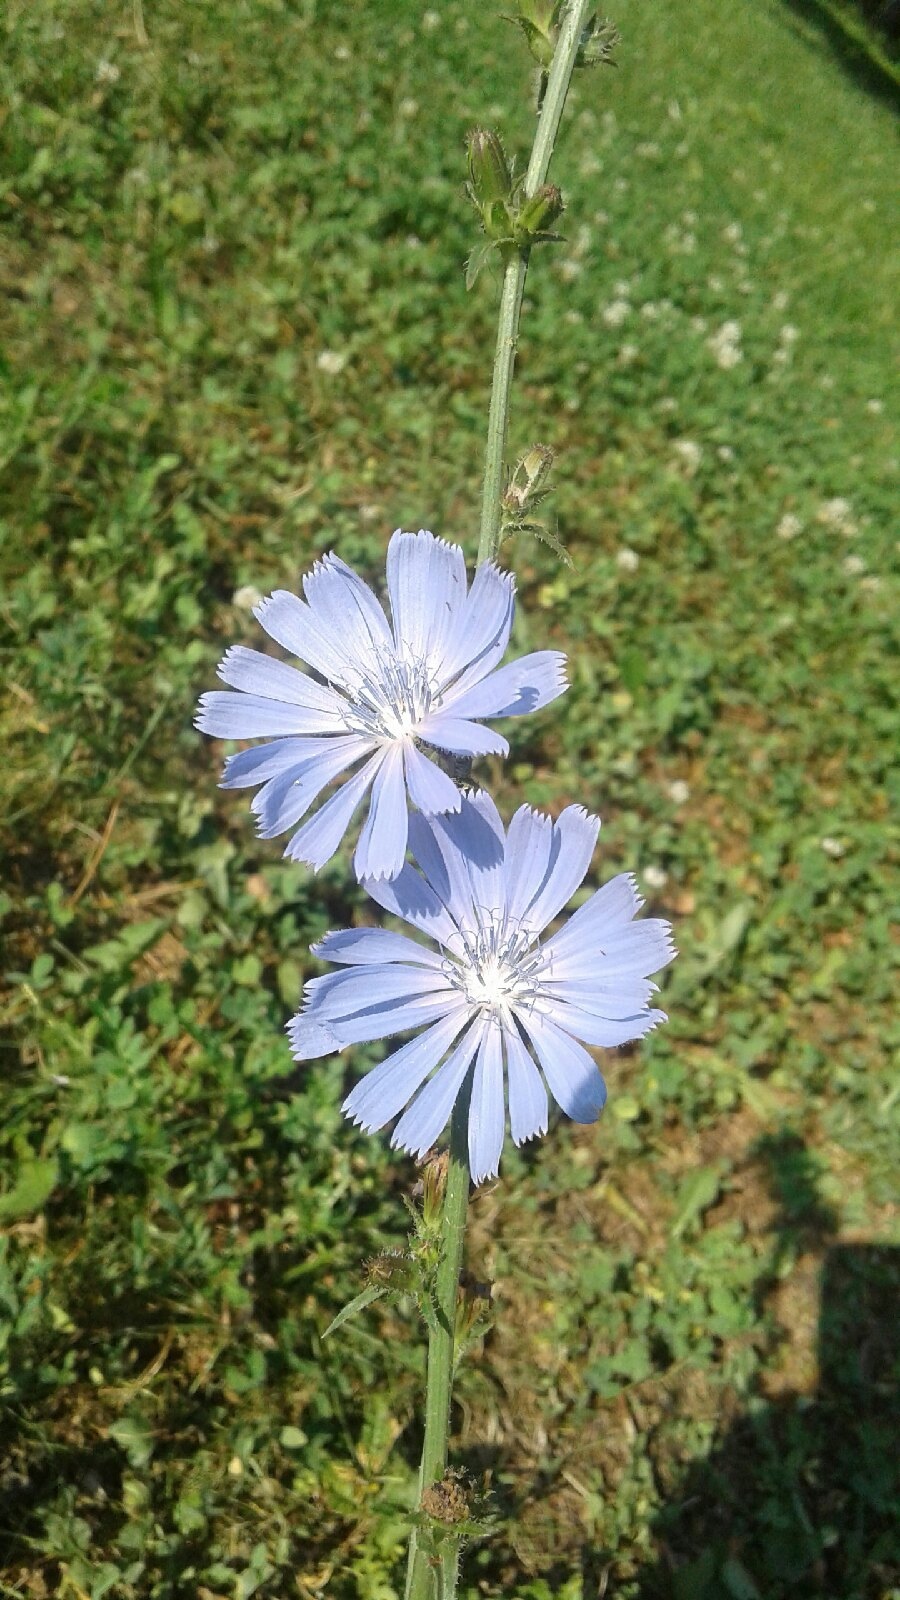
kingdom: Plantae
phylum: Tracheophyta
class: Magnoliopsida
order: Asterales
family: Asteraceae
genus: Cichorium
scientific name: Cichorium intybus
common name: Chicory
